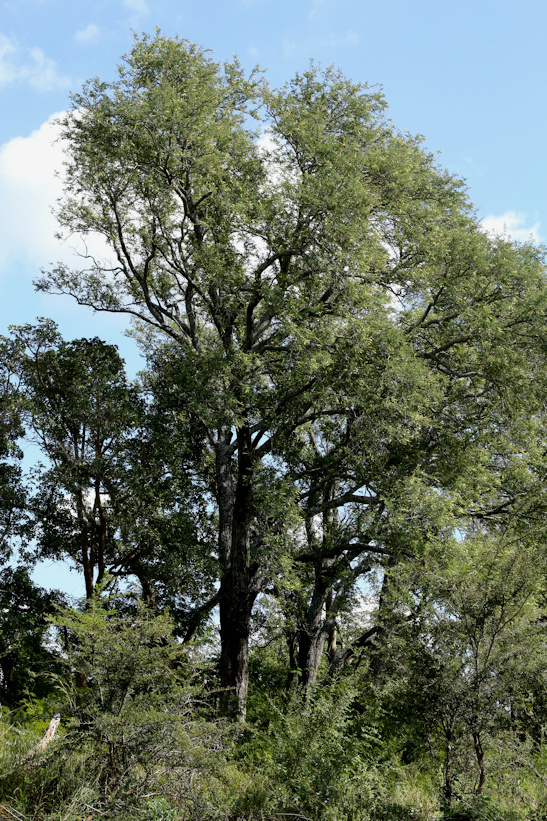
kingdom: Plantae
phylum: Tracheophyta
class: Magnoliopsida
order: Ericales
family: Ebenaceae
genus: Diospyros
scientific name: Diospyros mespiliformis
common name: Ebony diospyros
